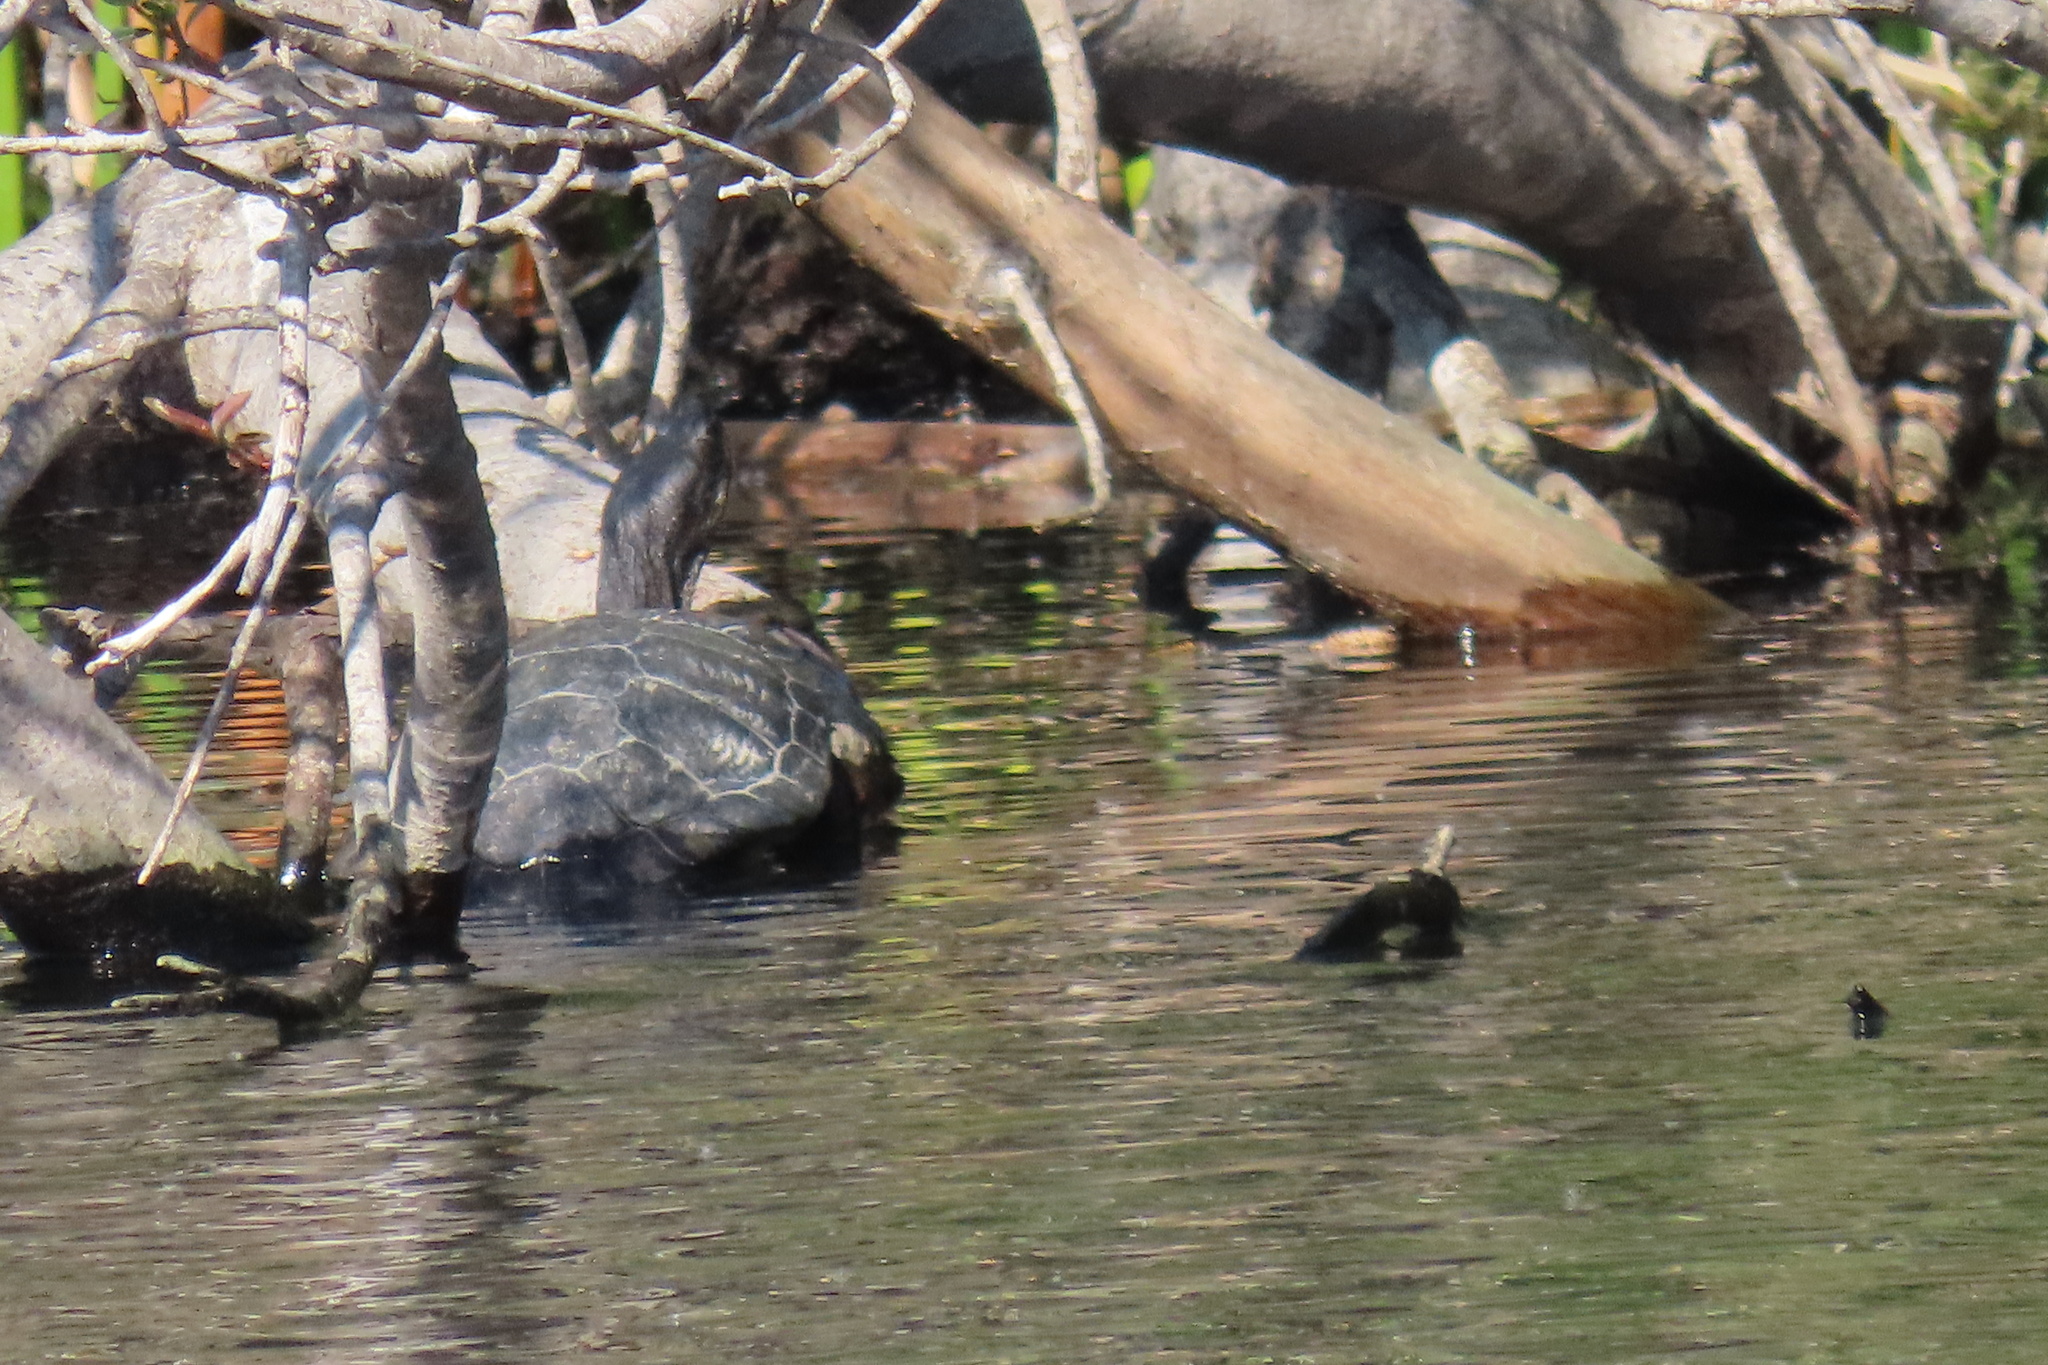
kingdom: Animalia
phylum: Chordata
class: Testudines
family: Emydidae
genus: Trachemys
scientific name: Trachemys scripta
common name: Slider
